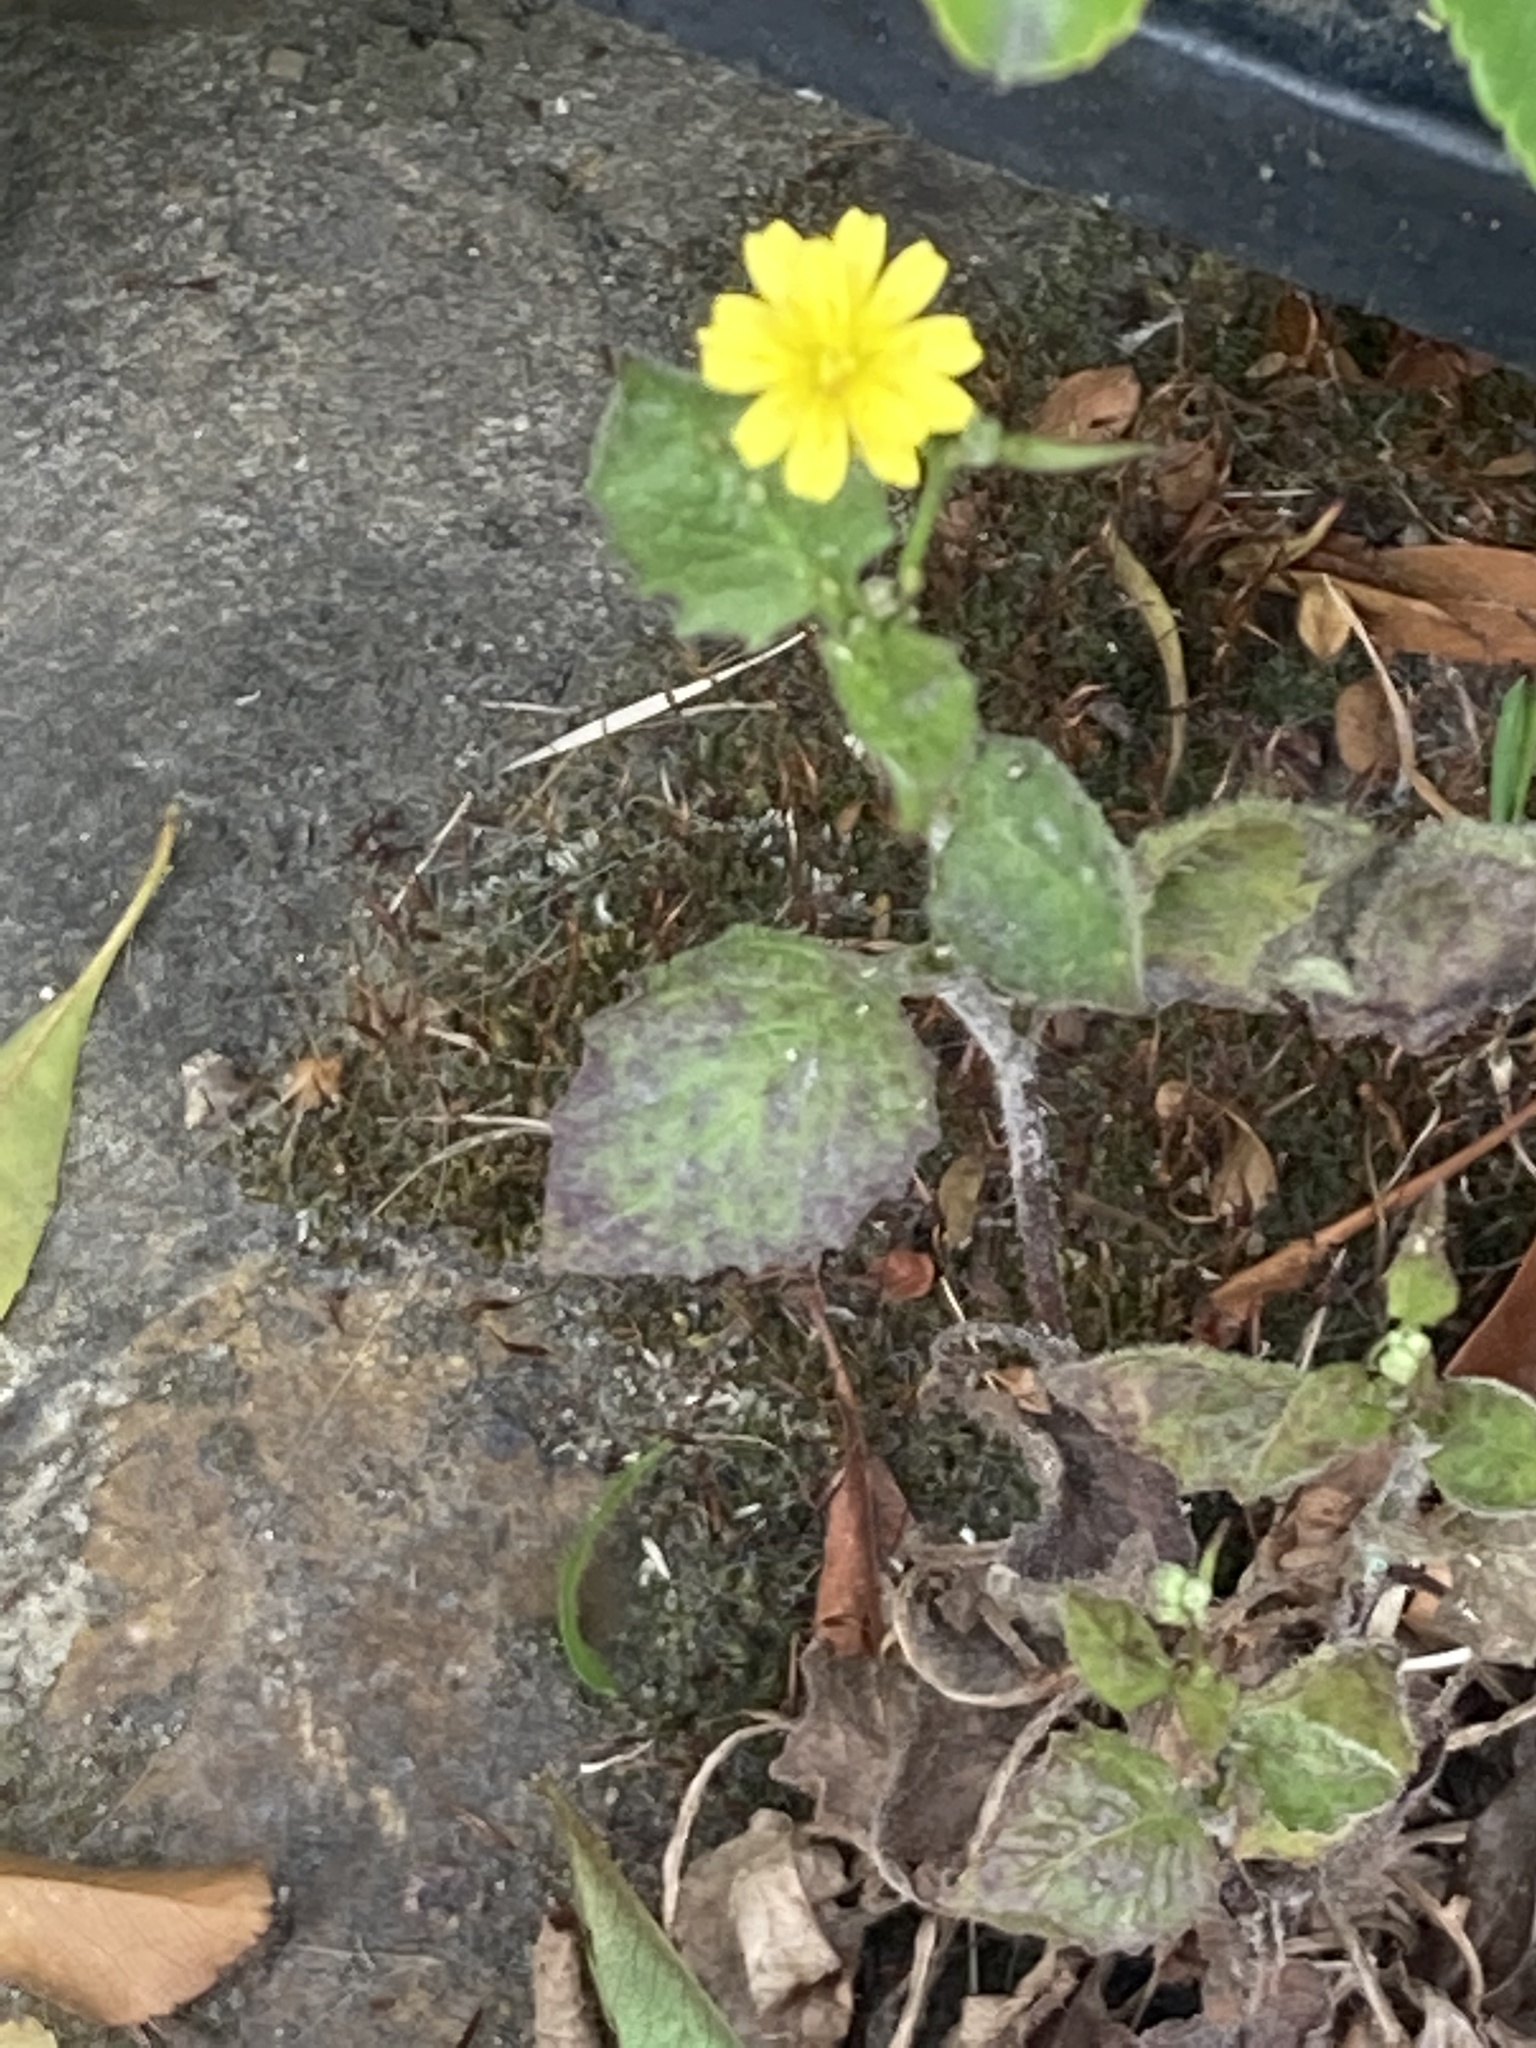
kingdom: Plantae
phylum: Tracheophyta
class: Magnoliopsida
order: Asterales
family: Asteraceae
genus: Lapsana
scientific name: Lapsana communis
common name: Nipplewort
